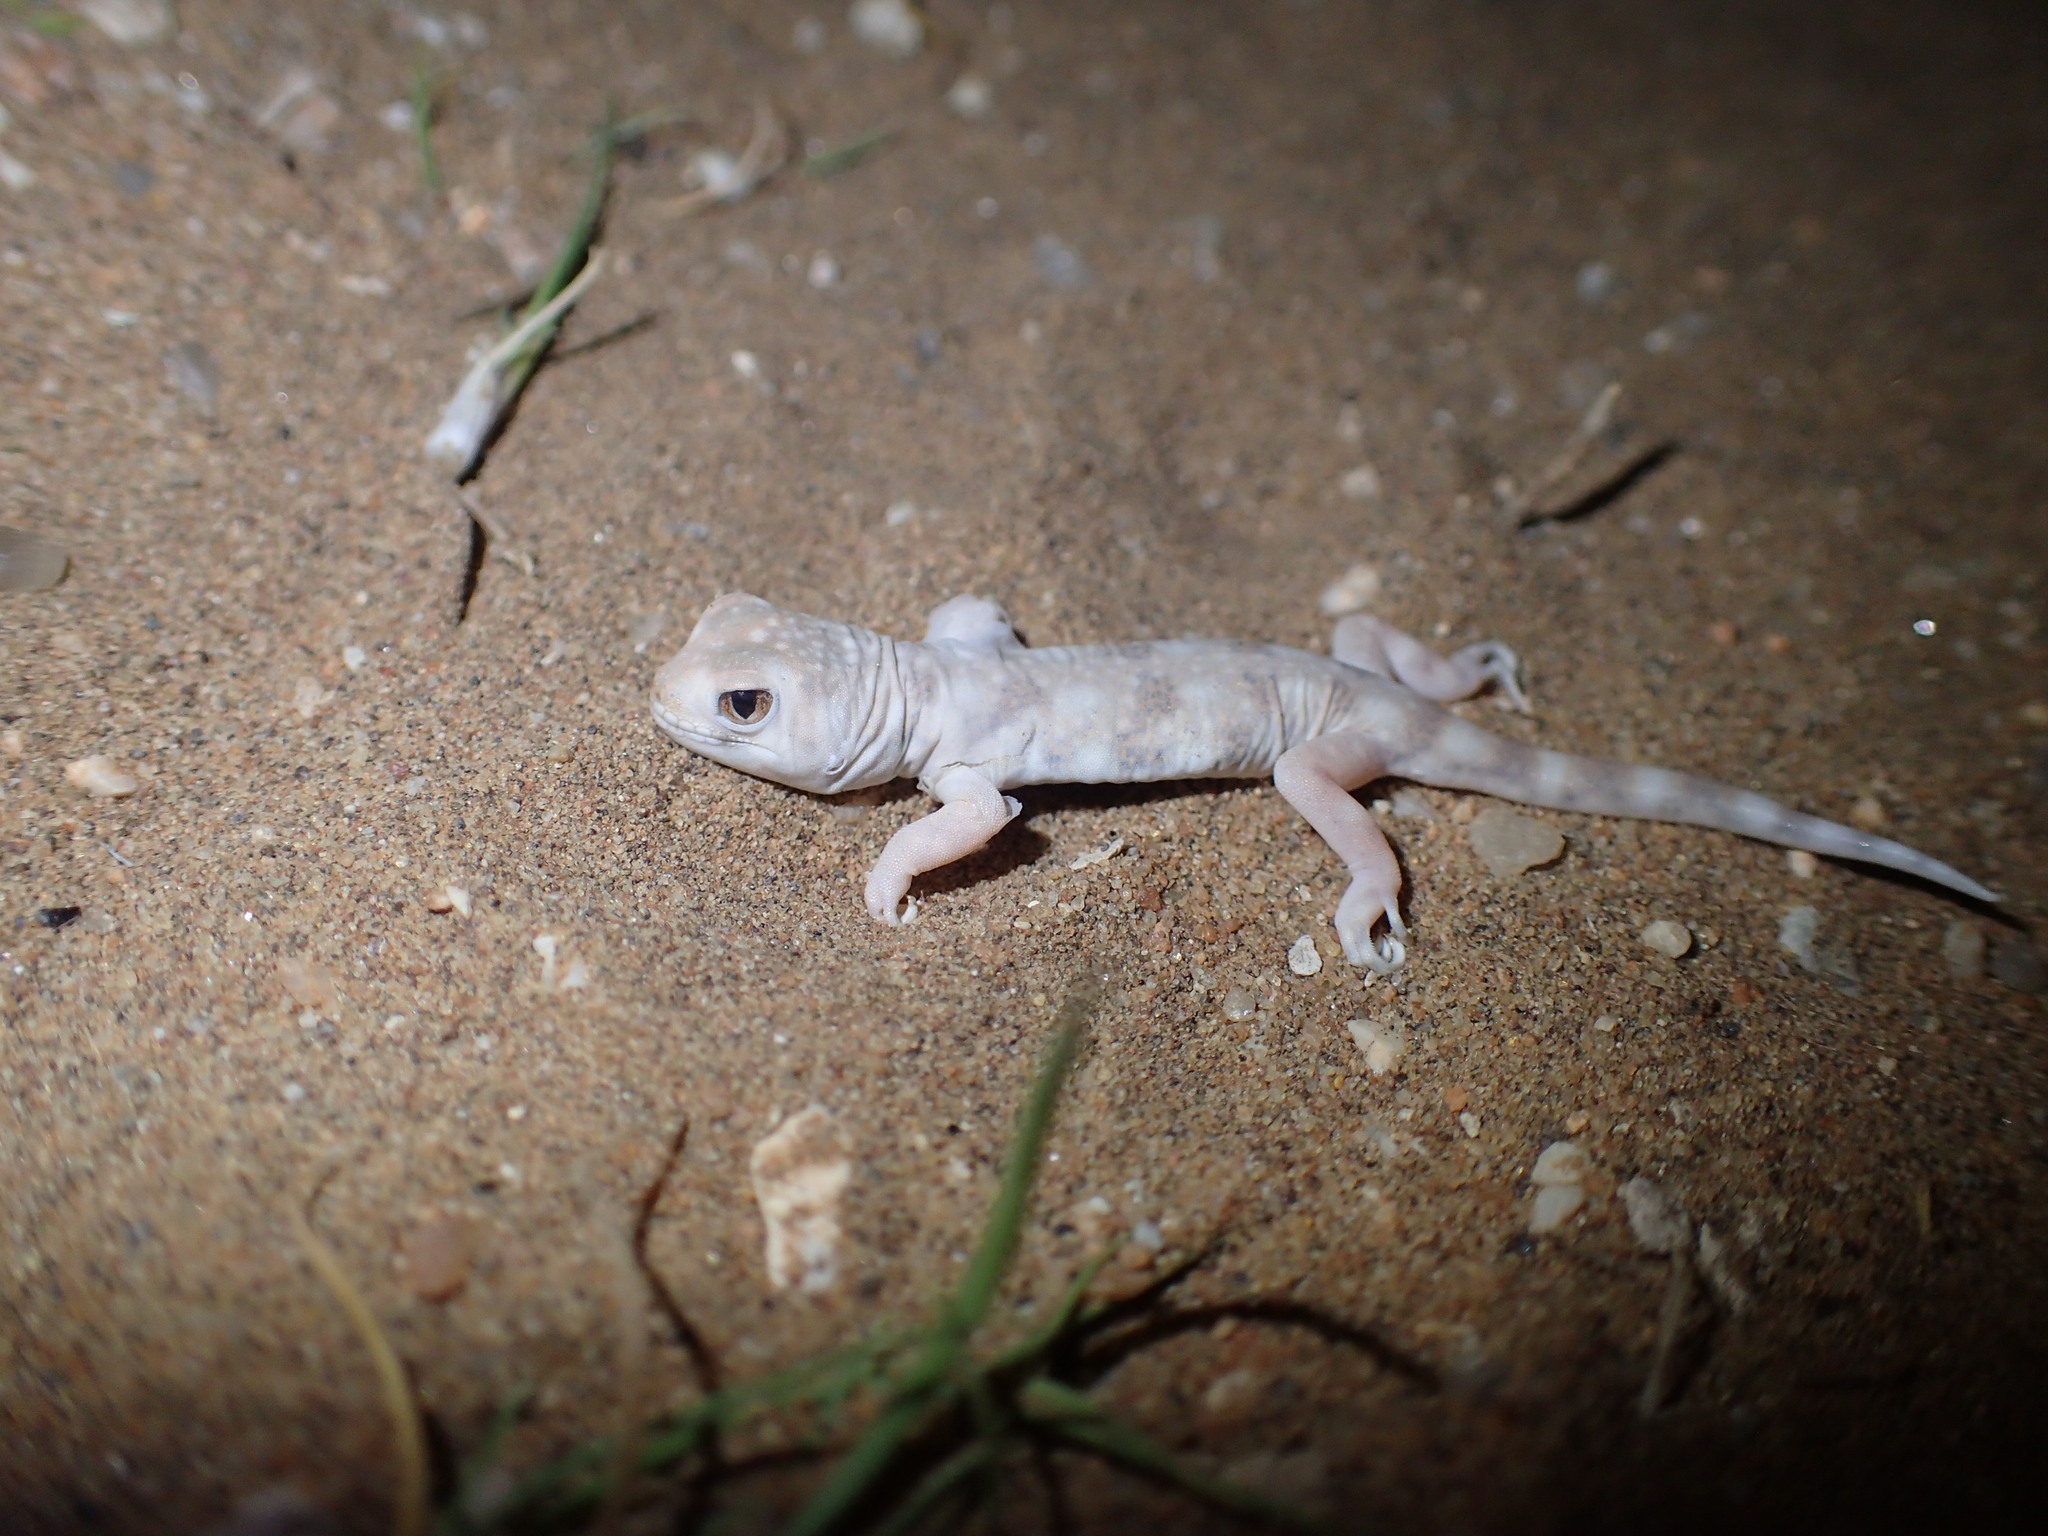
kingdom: Animalia
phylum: Chordata
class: Squamata
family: Gekkonidae
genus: Ptenopus
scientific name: Ptenopus garrulus
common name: Whistling gecko
